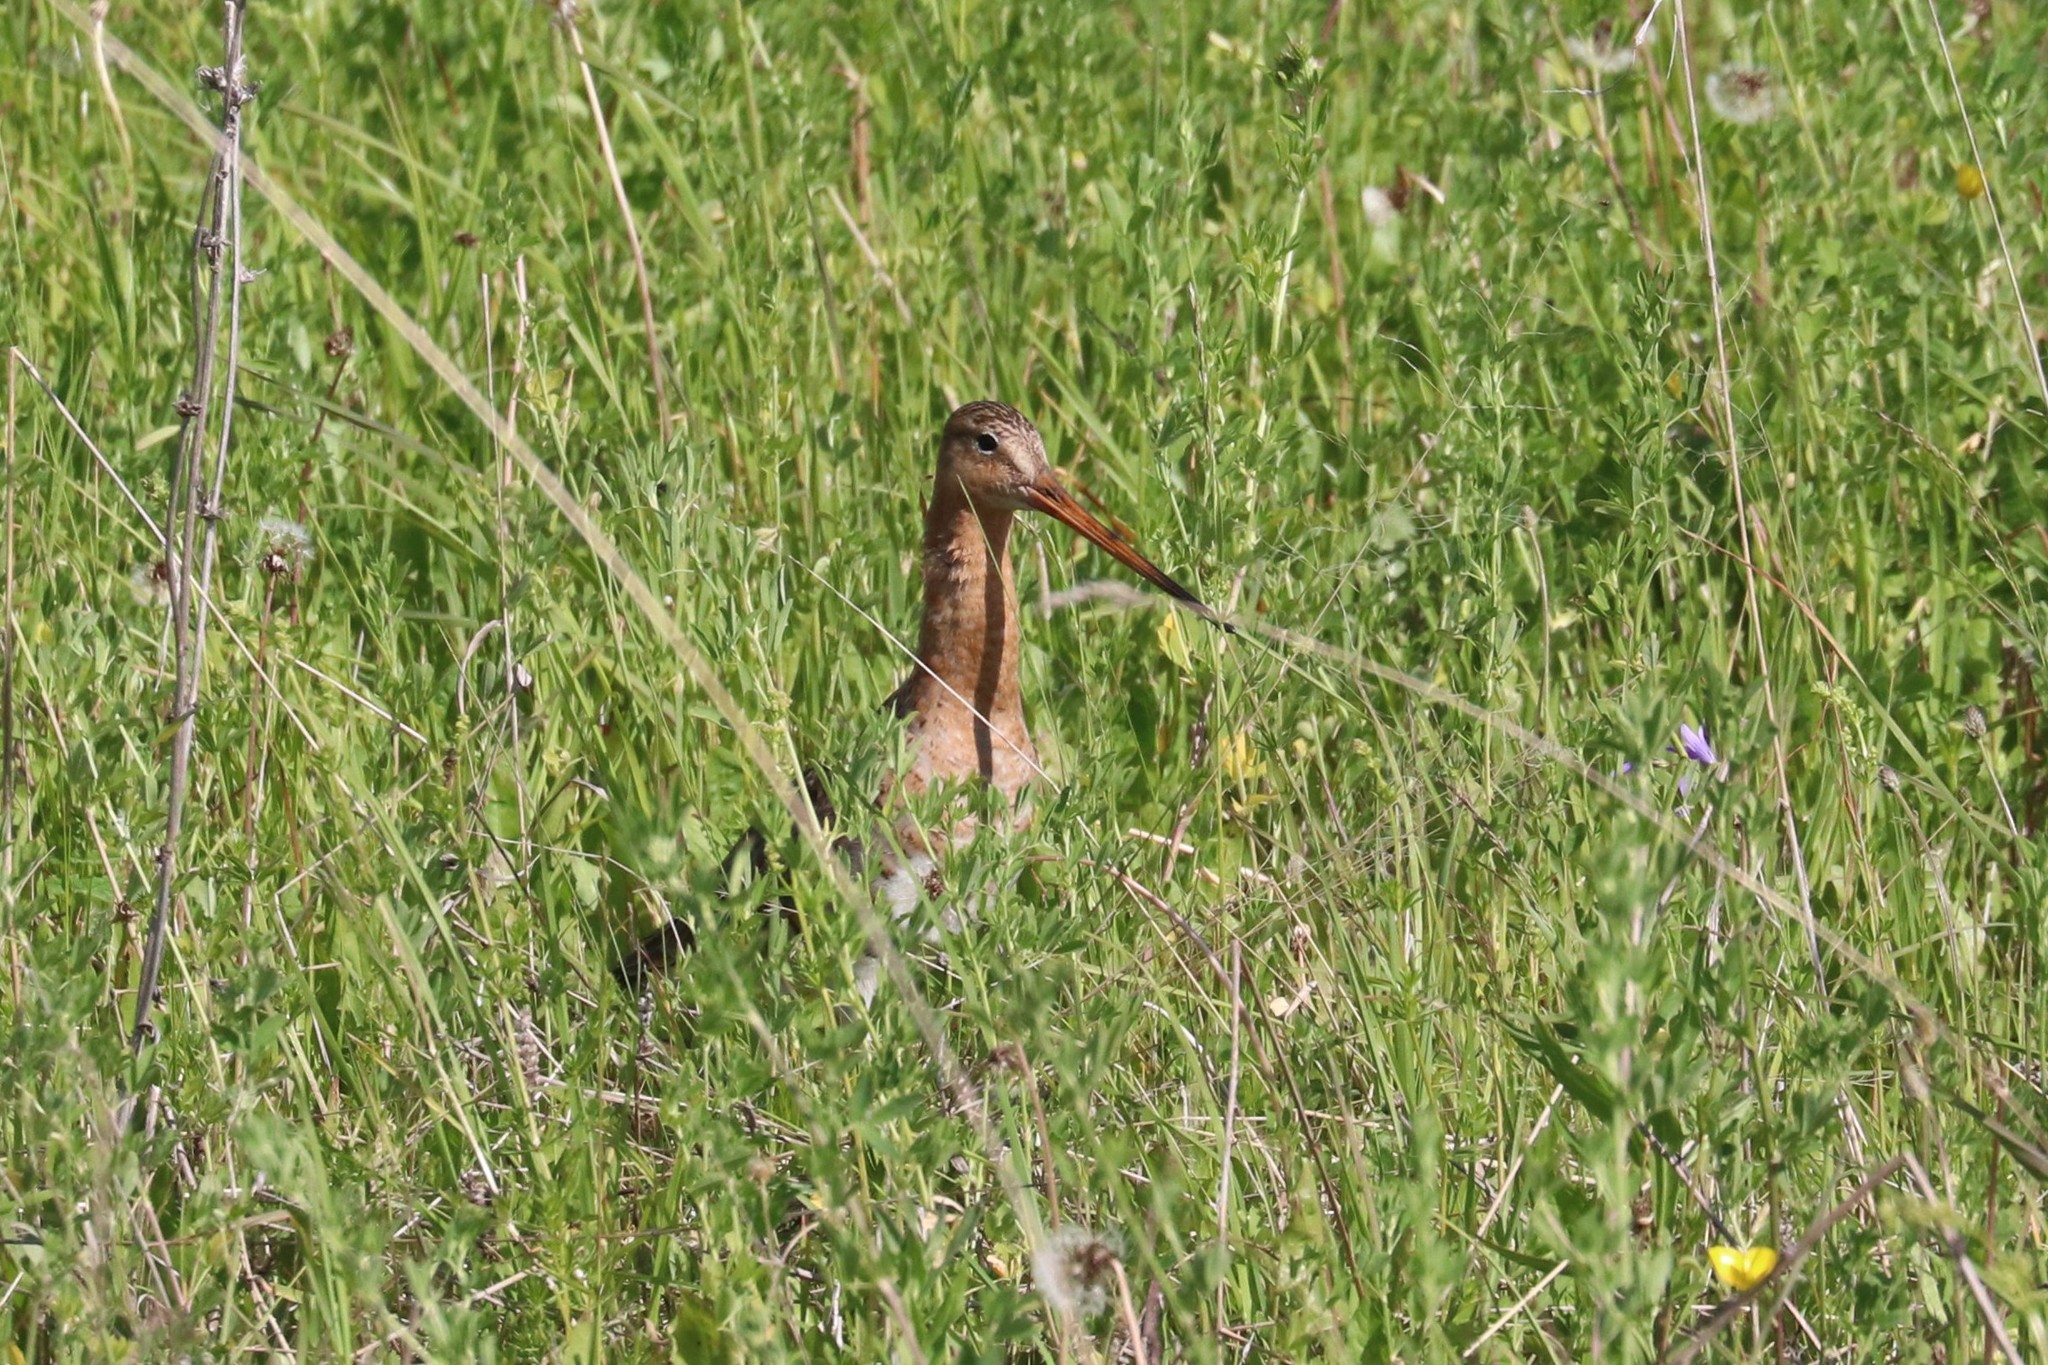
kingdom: Animalia
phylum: Chordata
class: Aves
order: Charadriiformes
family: Scolopacidae
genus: Limosa
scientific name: Limosa limosa
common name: Black-tailed godwit
